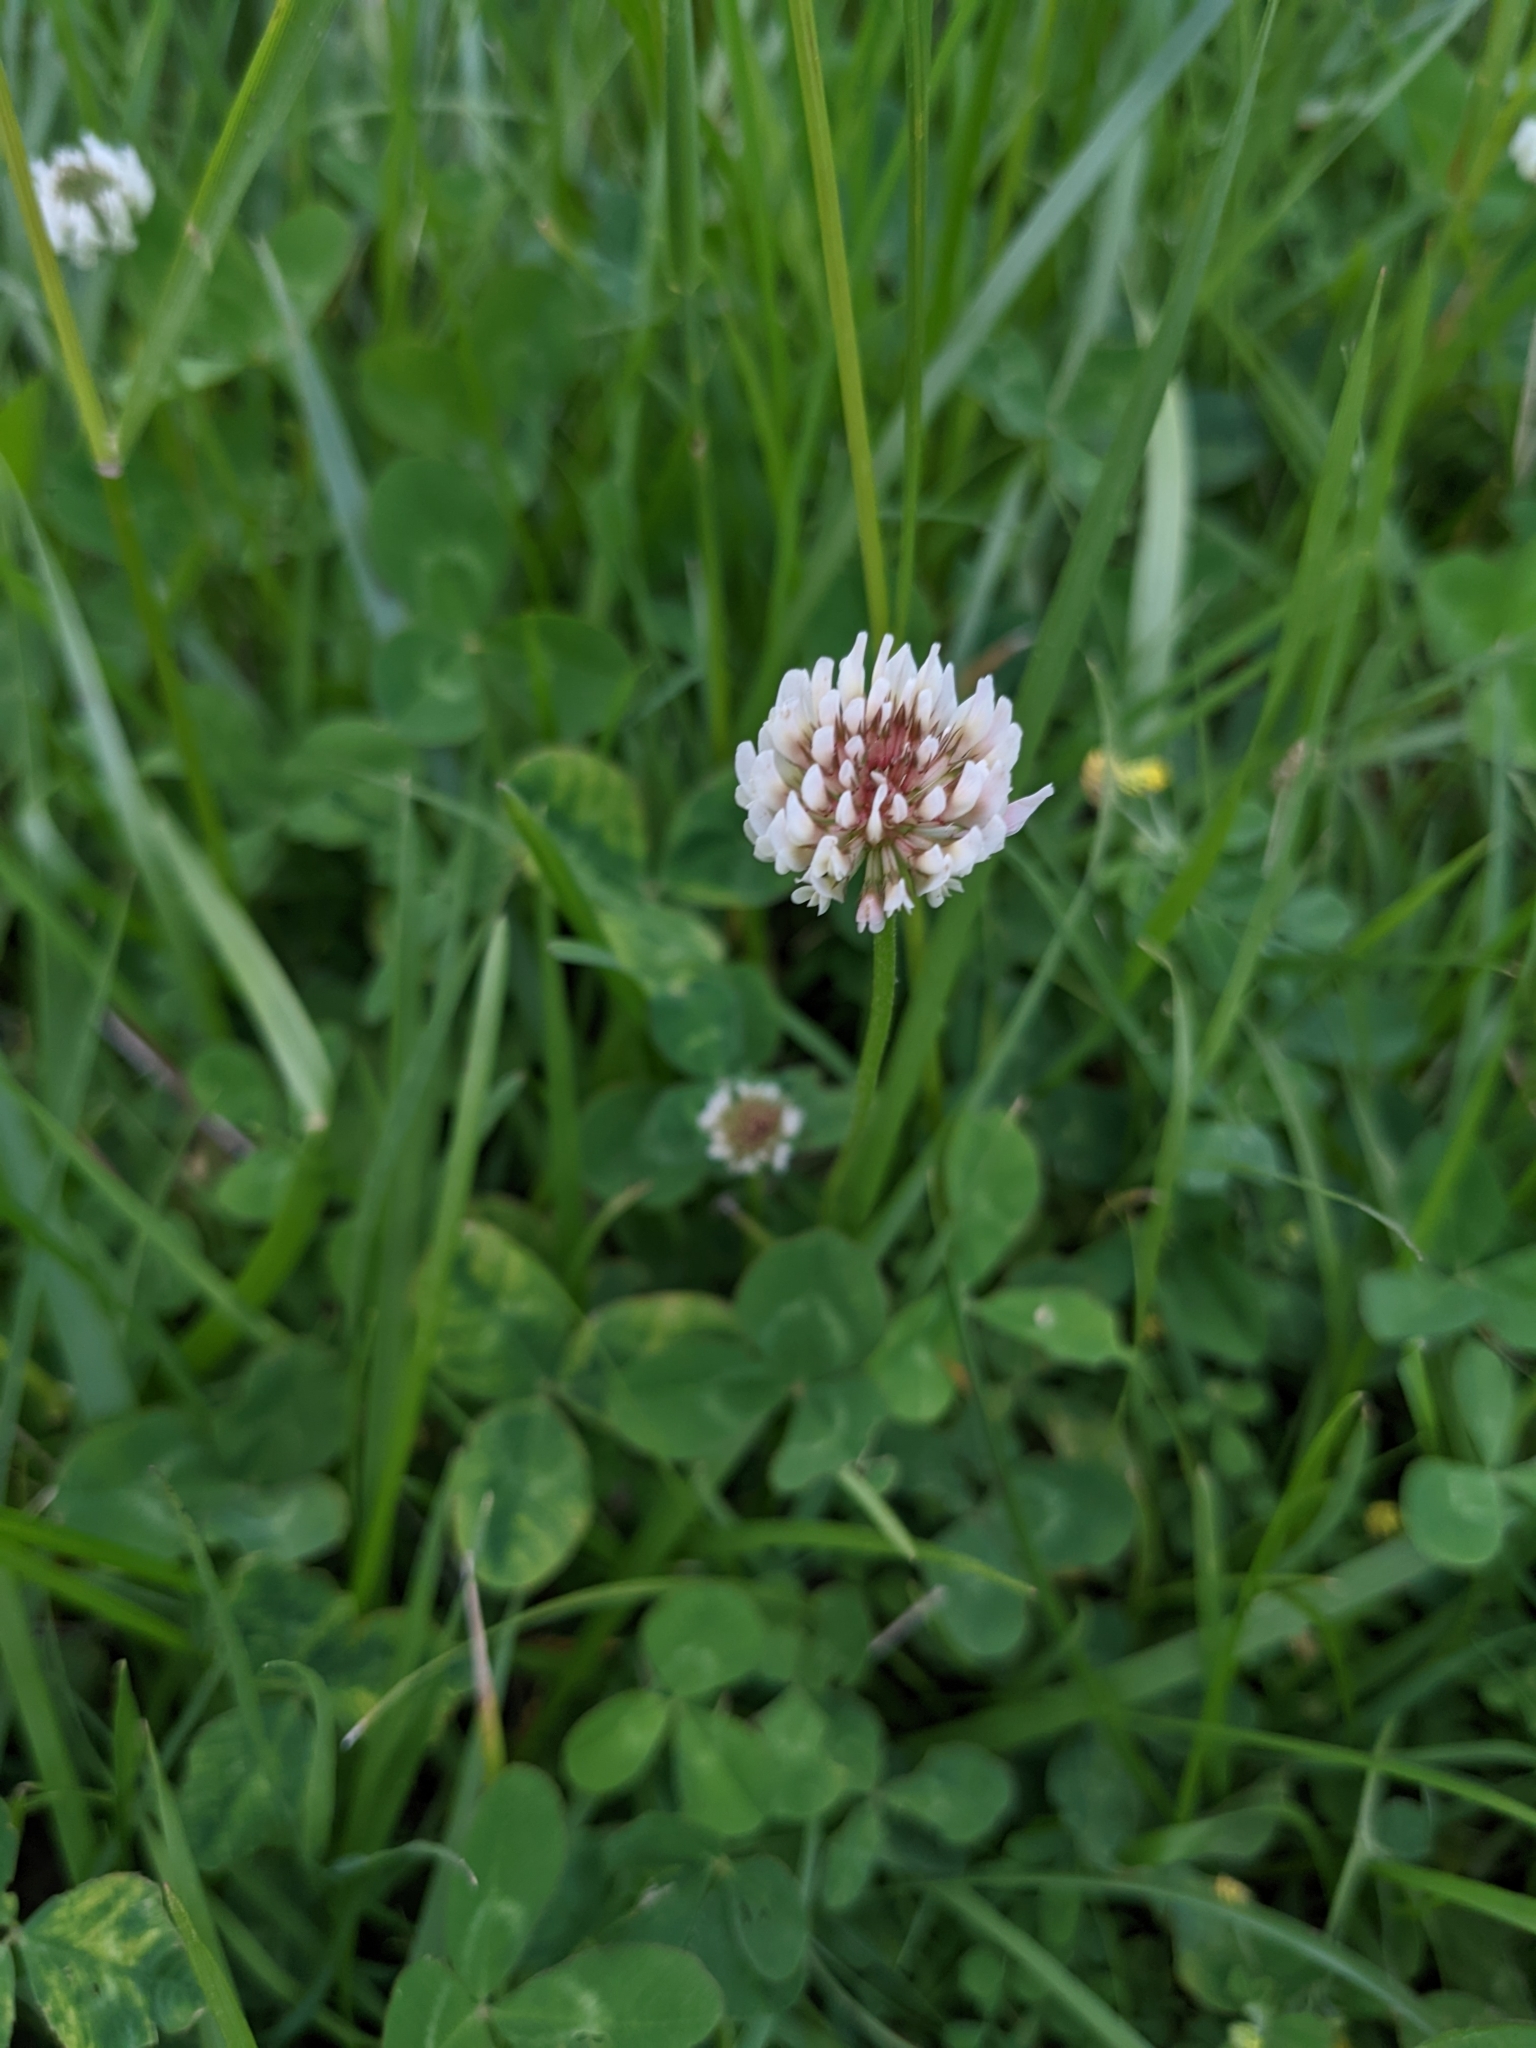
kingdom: Plantae
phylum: Tracheophyta
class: Magnoliopsida
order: Fabales
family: Fabaceae
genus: Trifolium
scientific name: Trifolium repens
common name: White clover
